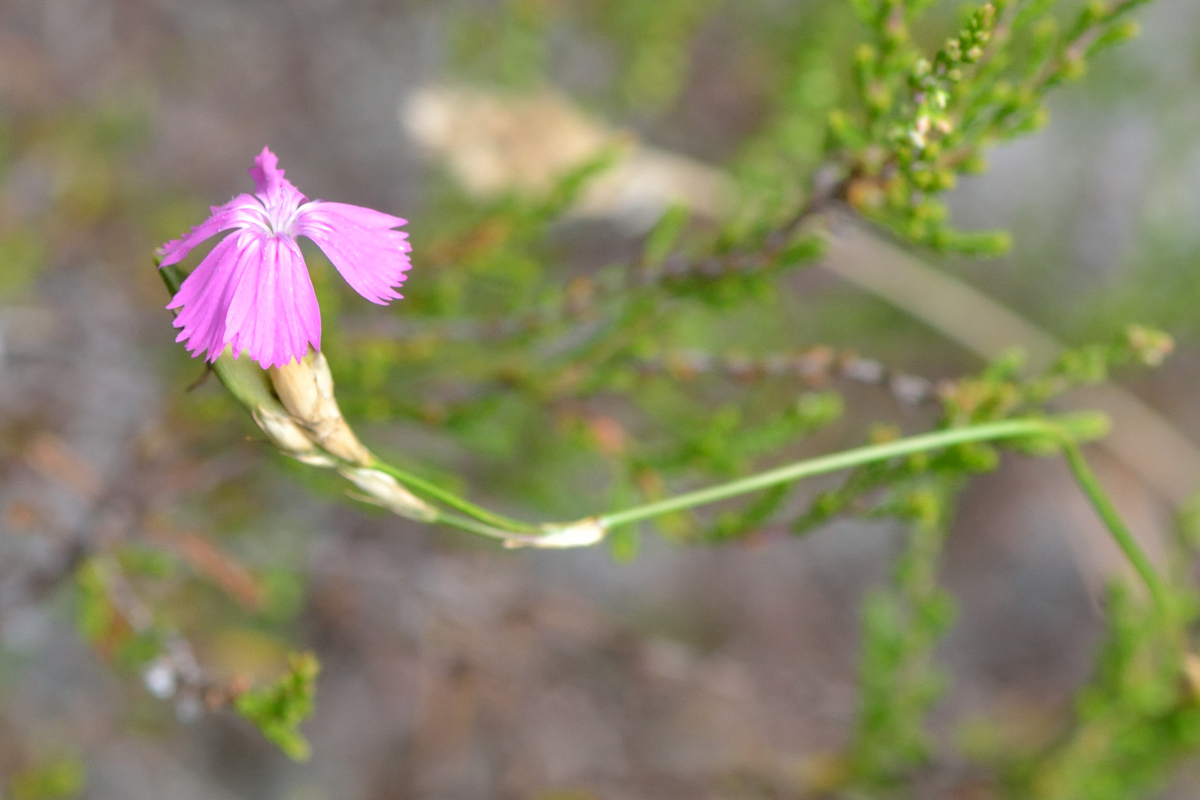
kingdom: Plantae
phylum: Tracheophyta
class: Magnoliopsida
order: Caryophyllales
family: Caryophyllaceae
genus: Dianthus
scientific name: Dianthus borbasii
